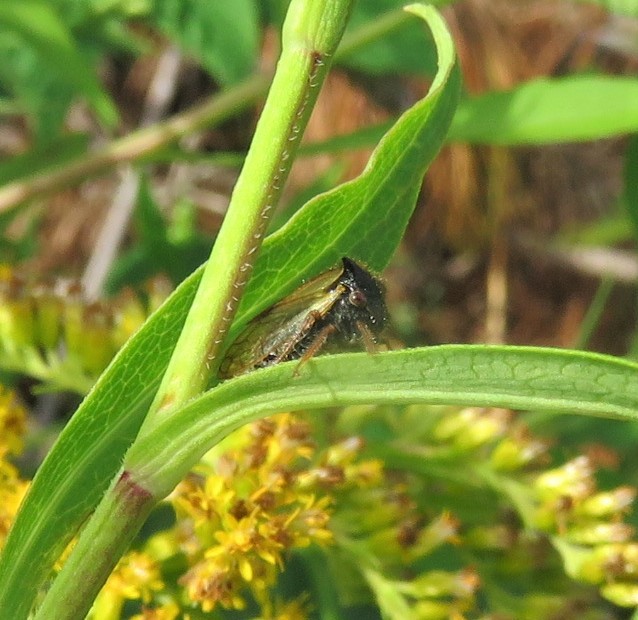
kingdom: Animalia
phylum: Arthropoda
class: Insecta
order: Hemiptera
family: Membracidae
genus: Stictocephala
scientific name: Stictocephala basalis
